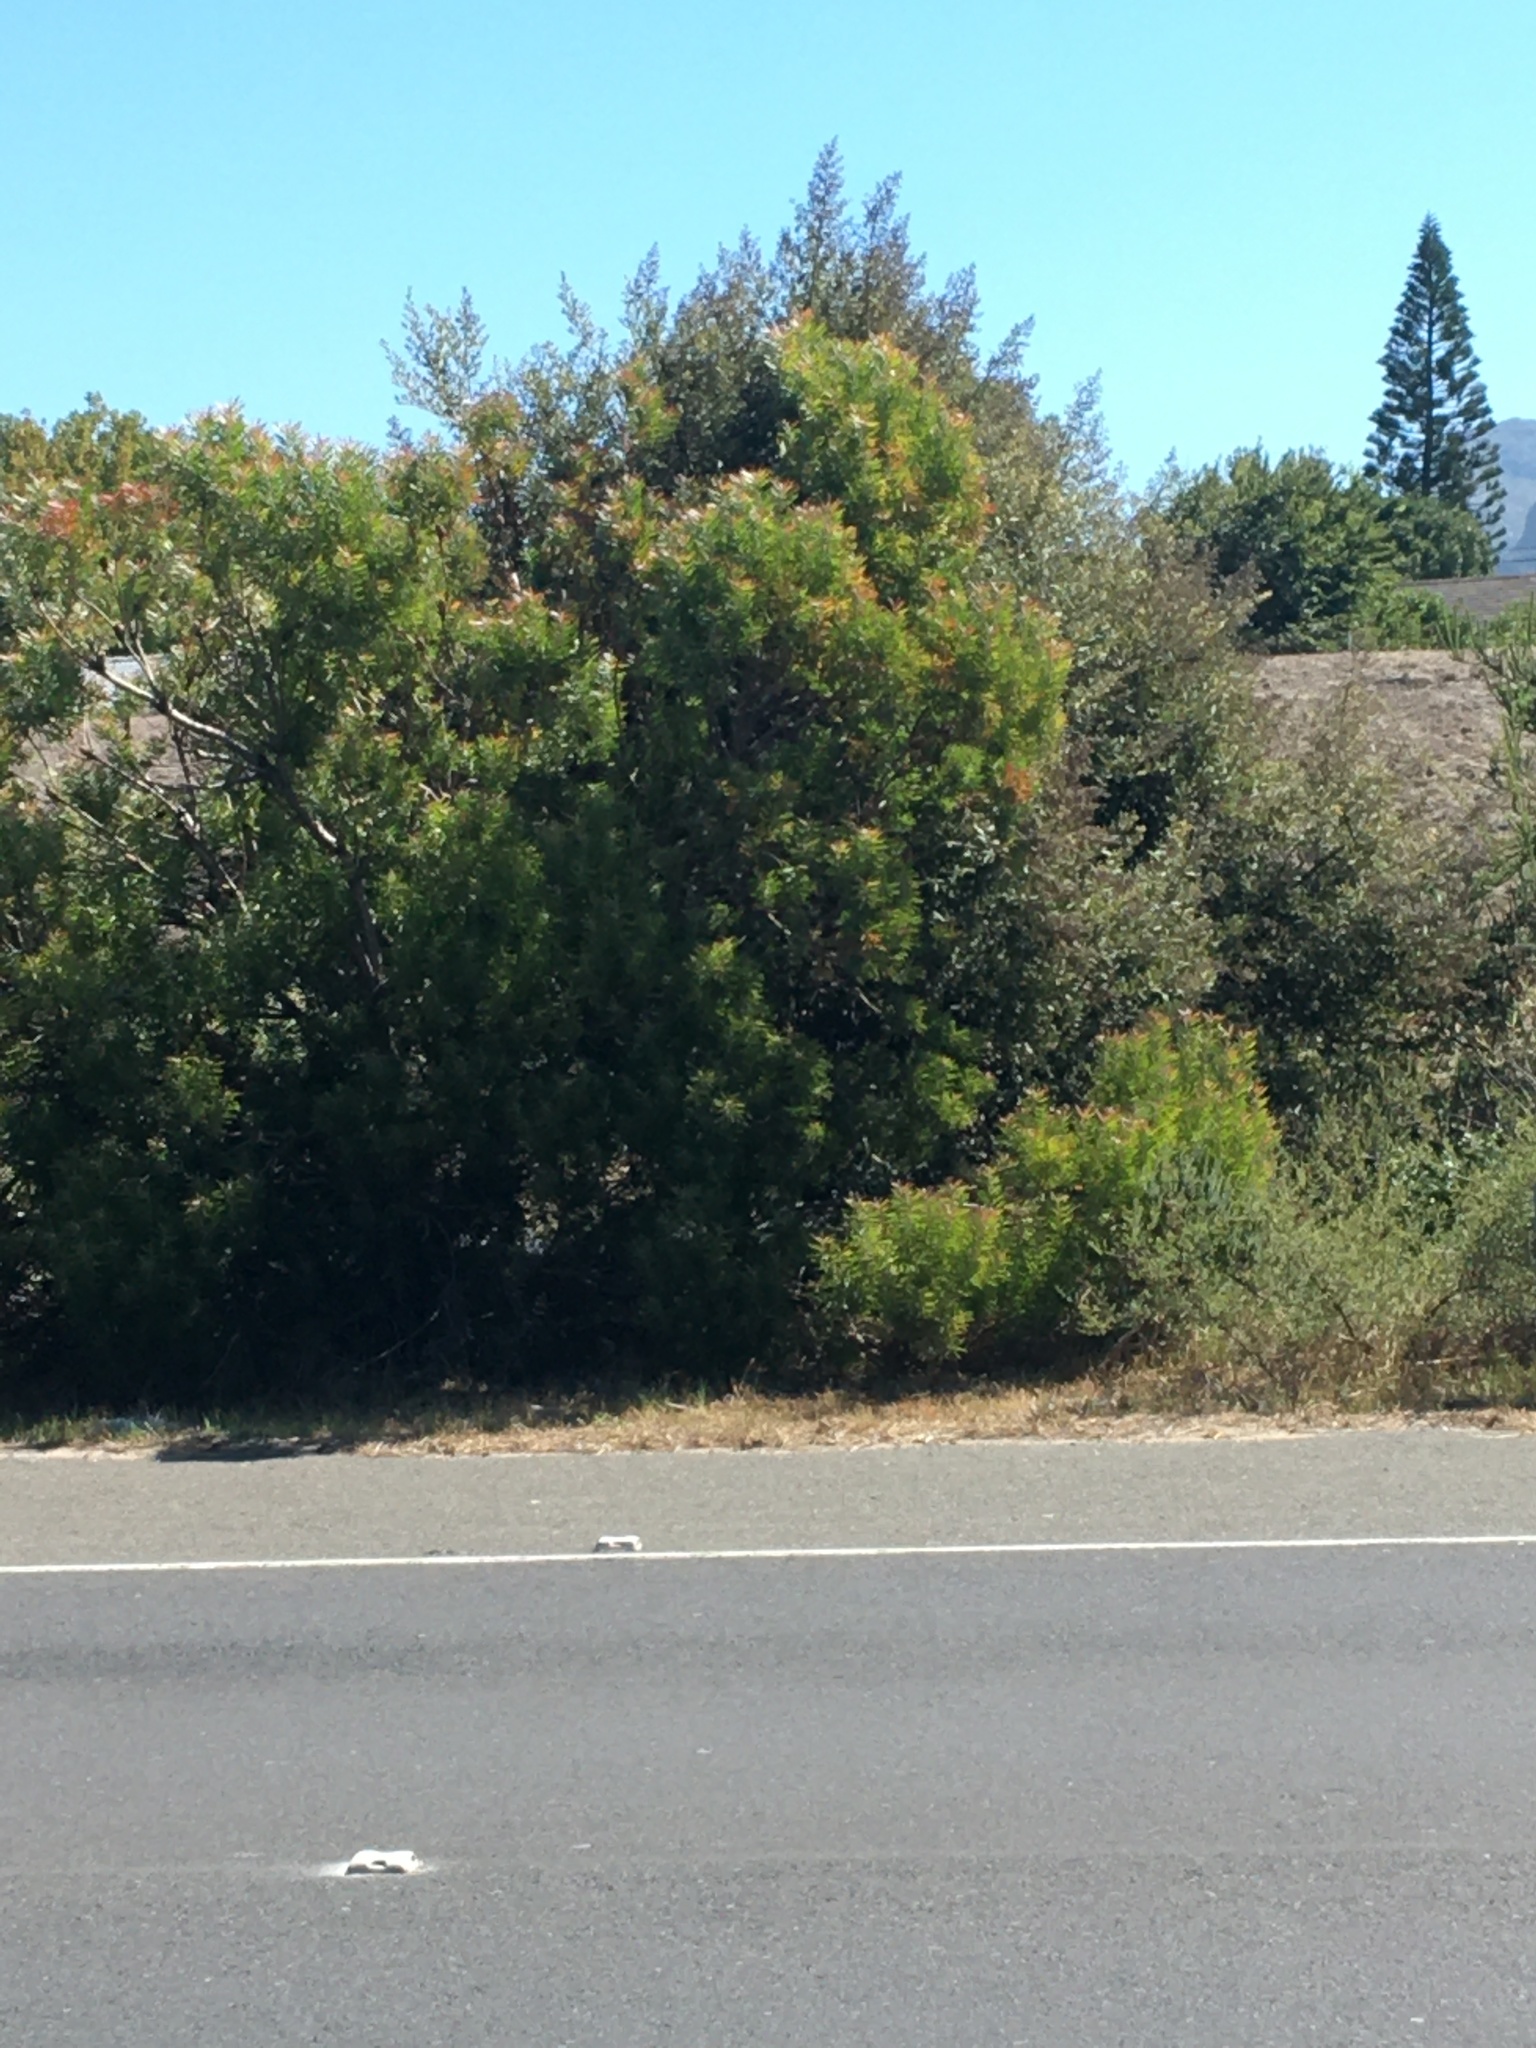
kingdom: Plantae
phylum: Tracheophyta
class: Magnoliopsida
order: Proteales
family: Proteaceae
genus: Leucadendron
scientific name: Leucadendron coniferum
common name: Dune conebush
